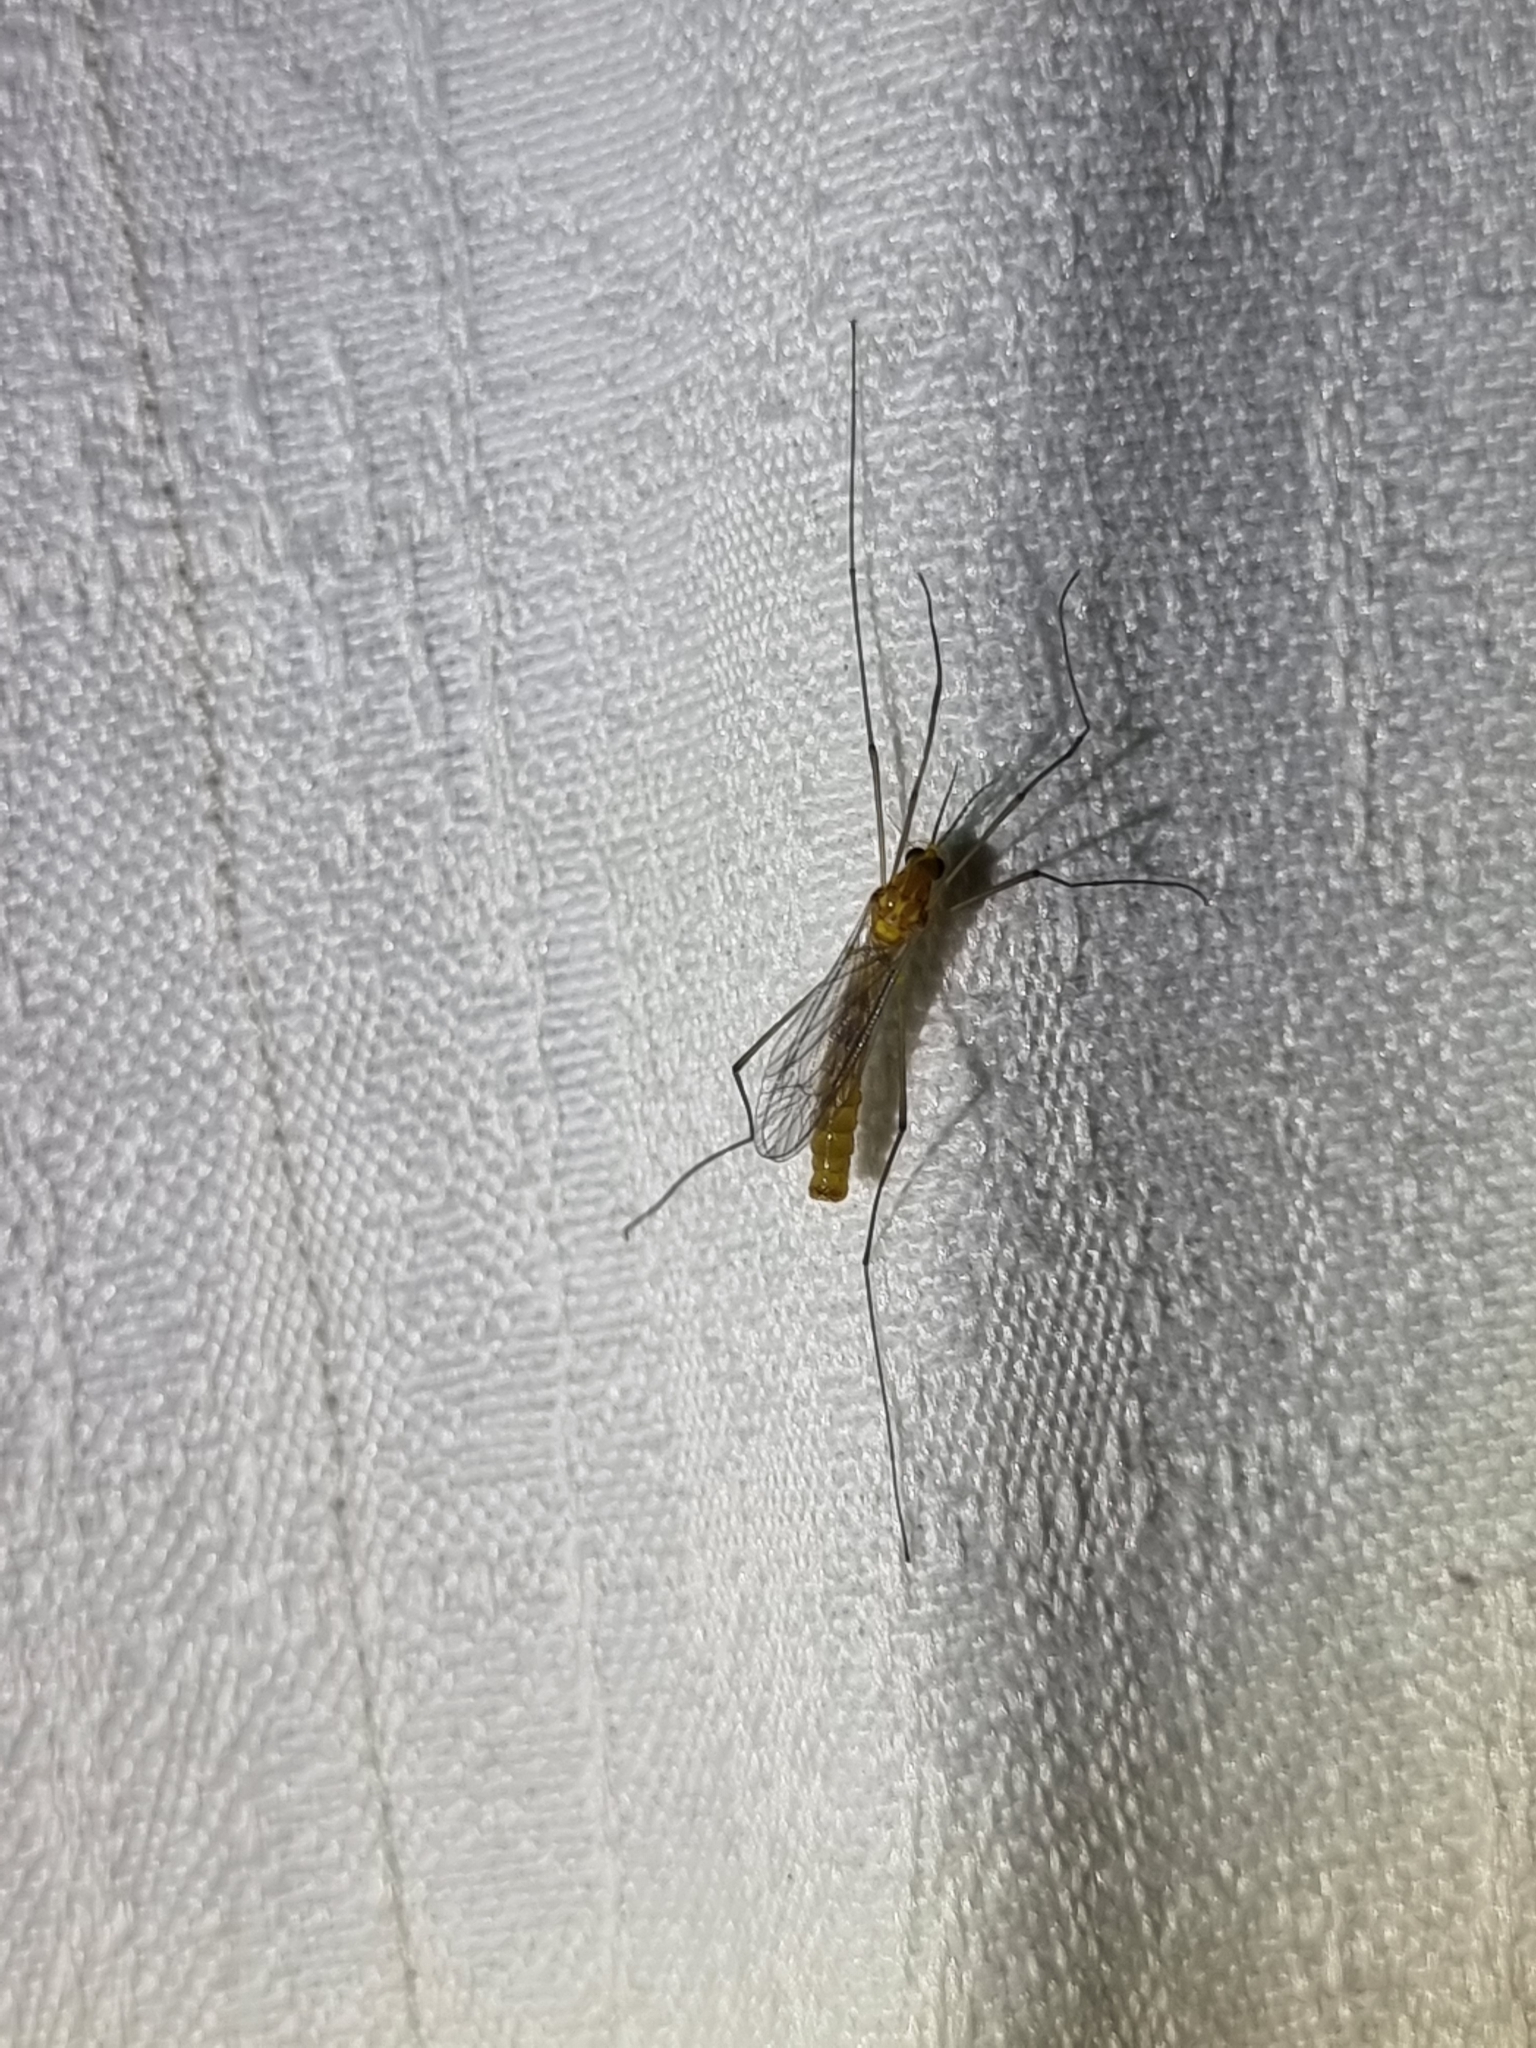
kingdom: Animalia
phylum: Arthropoda
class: Insecta
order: Diptera
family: Tipulidae
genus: Nephrotoma
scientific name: Nephrotoma australasiae
